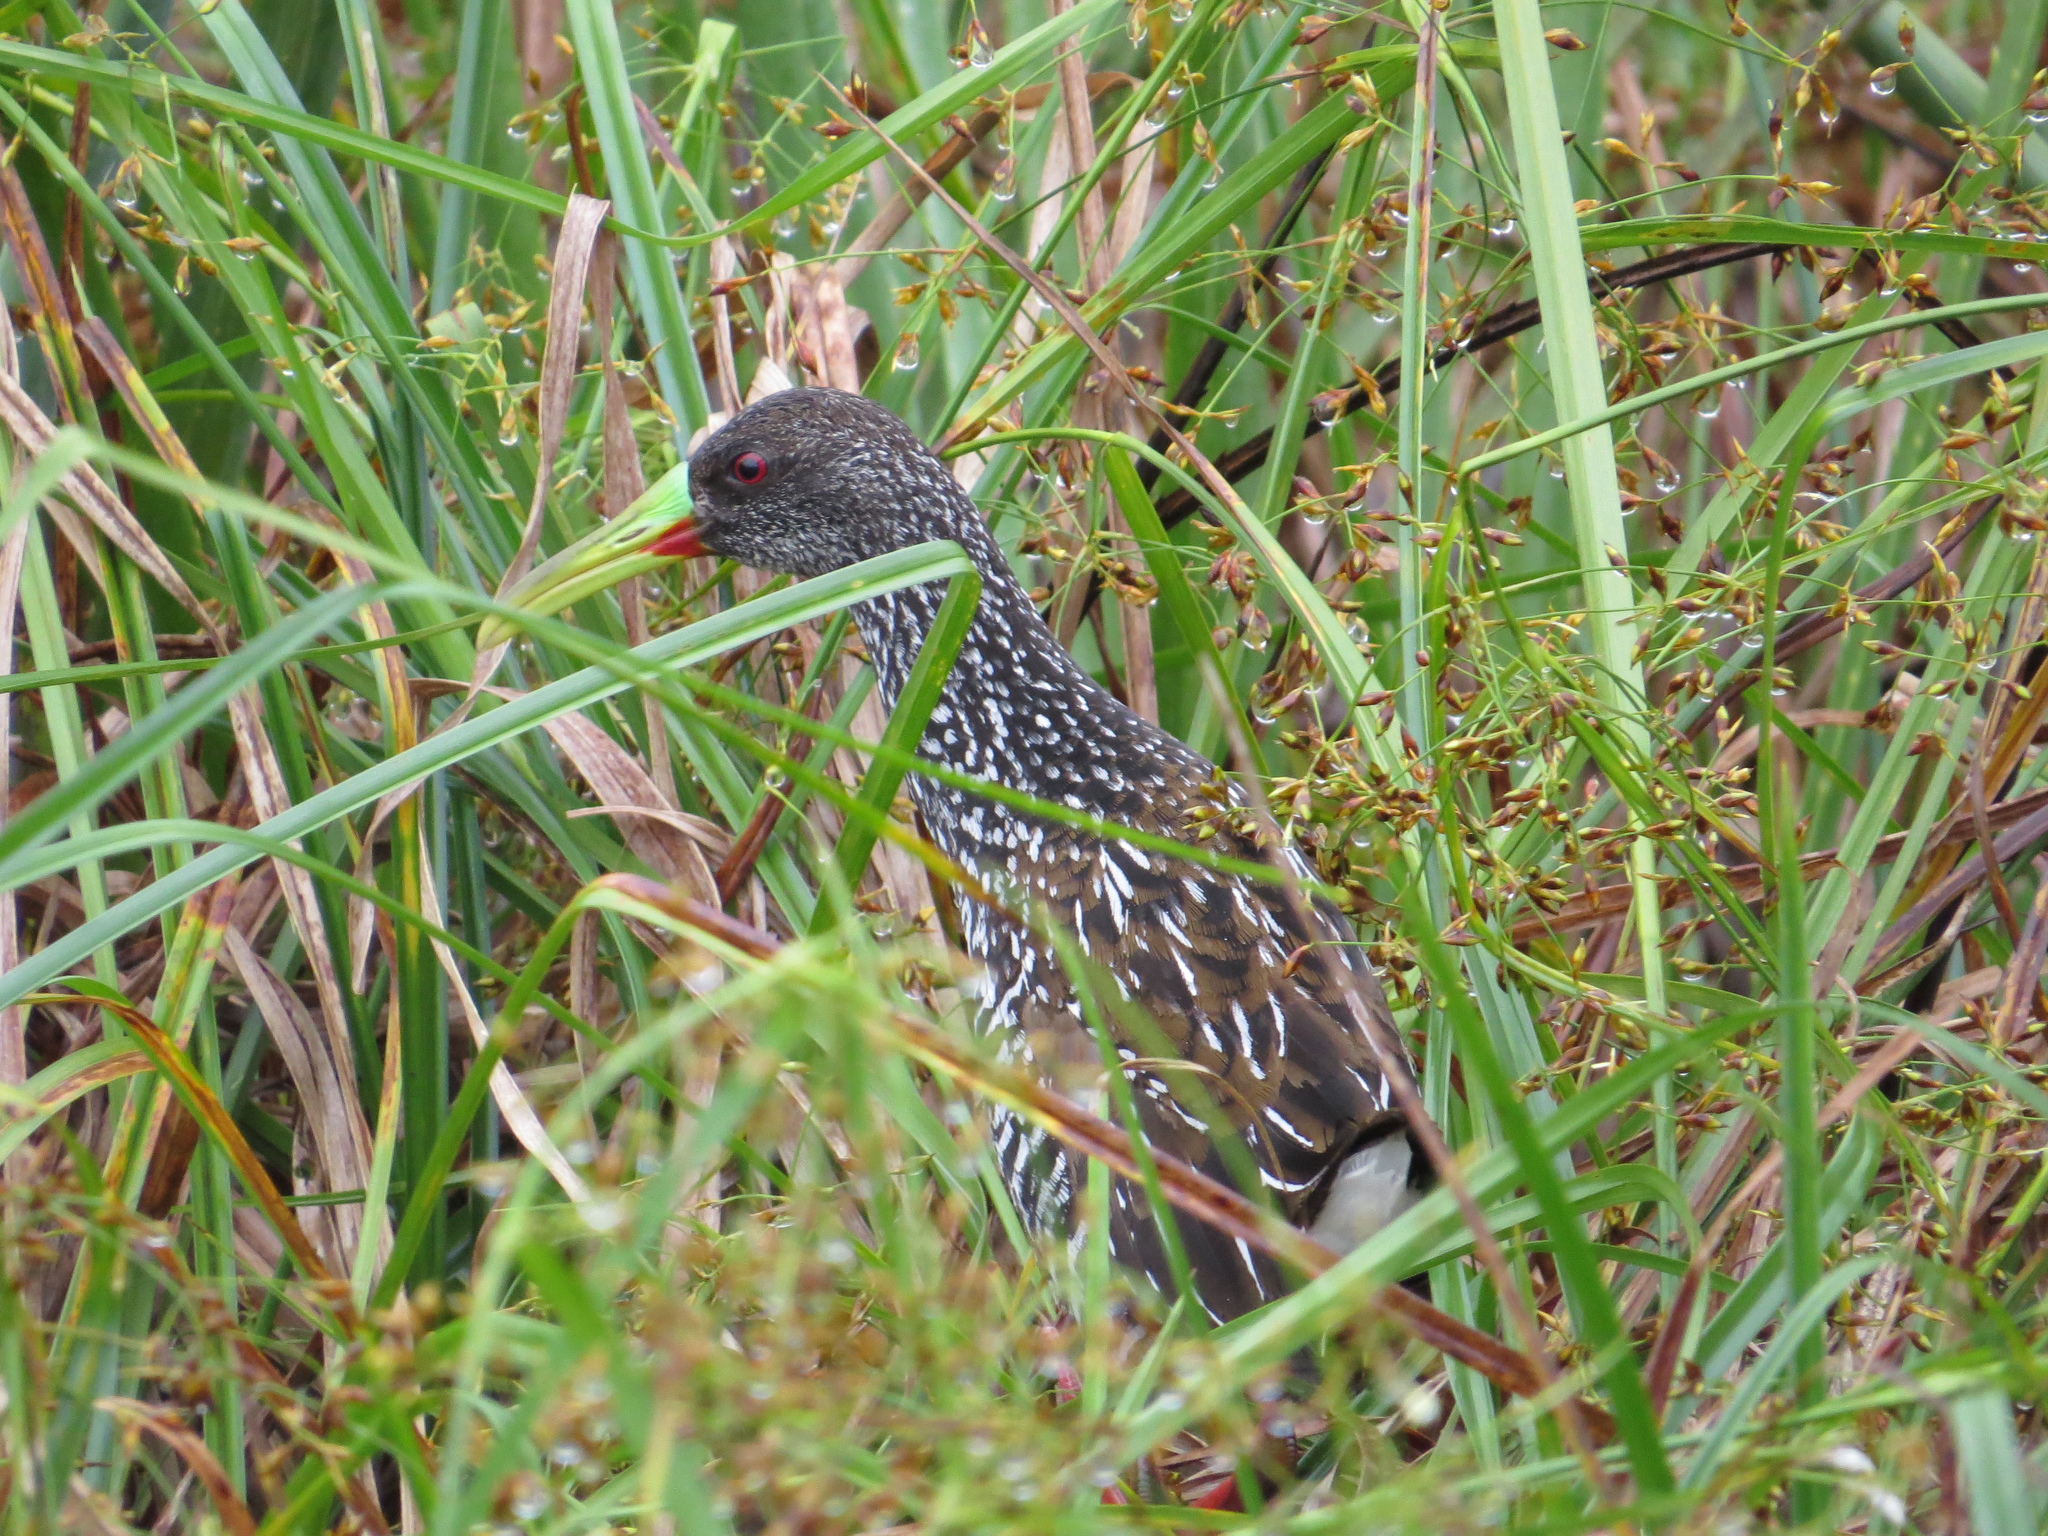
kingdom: Animalia
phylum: Chordata
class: Aves
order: Gruiformes
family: Rallidae
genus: Pardirallus
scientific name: Pardirallus maculatus
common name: Spotted rail
